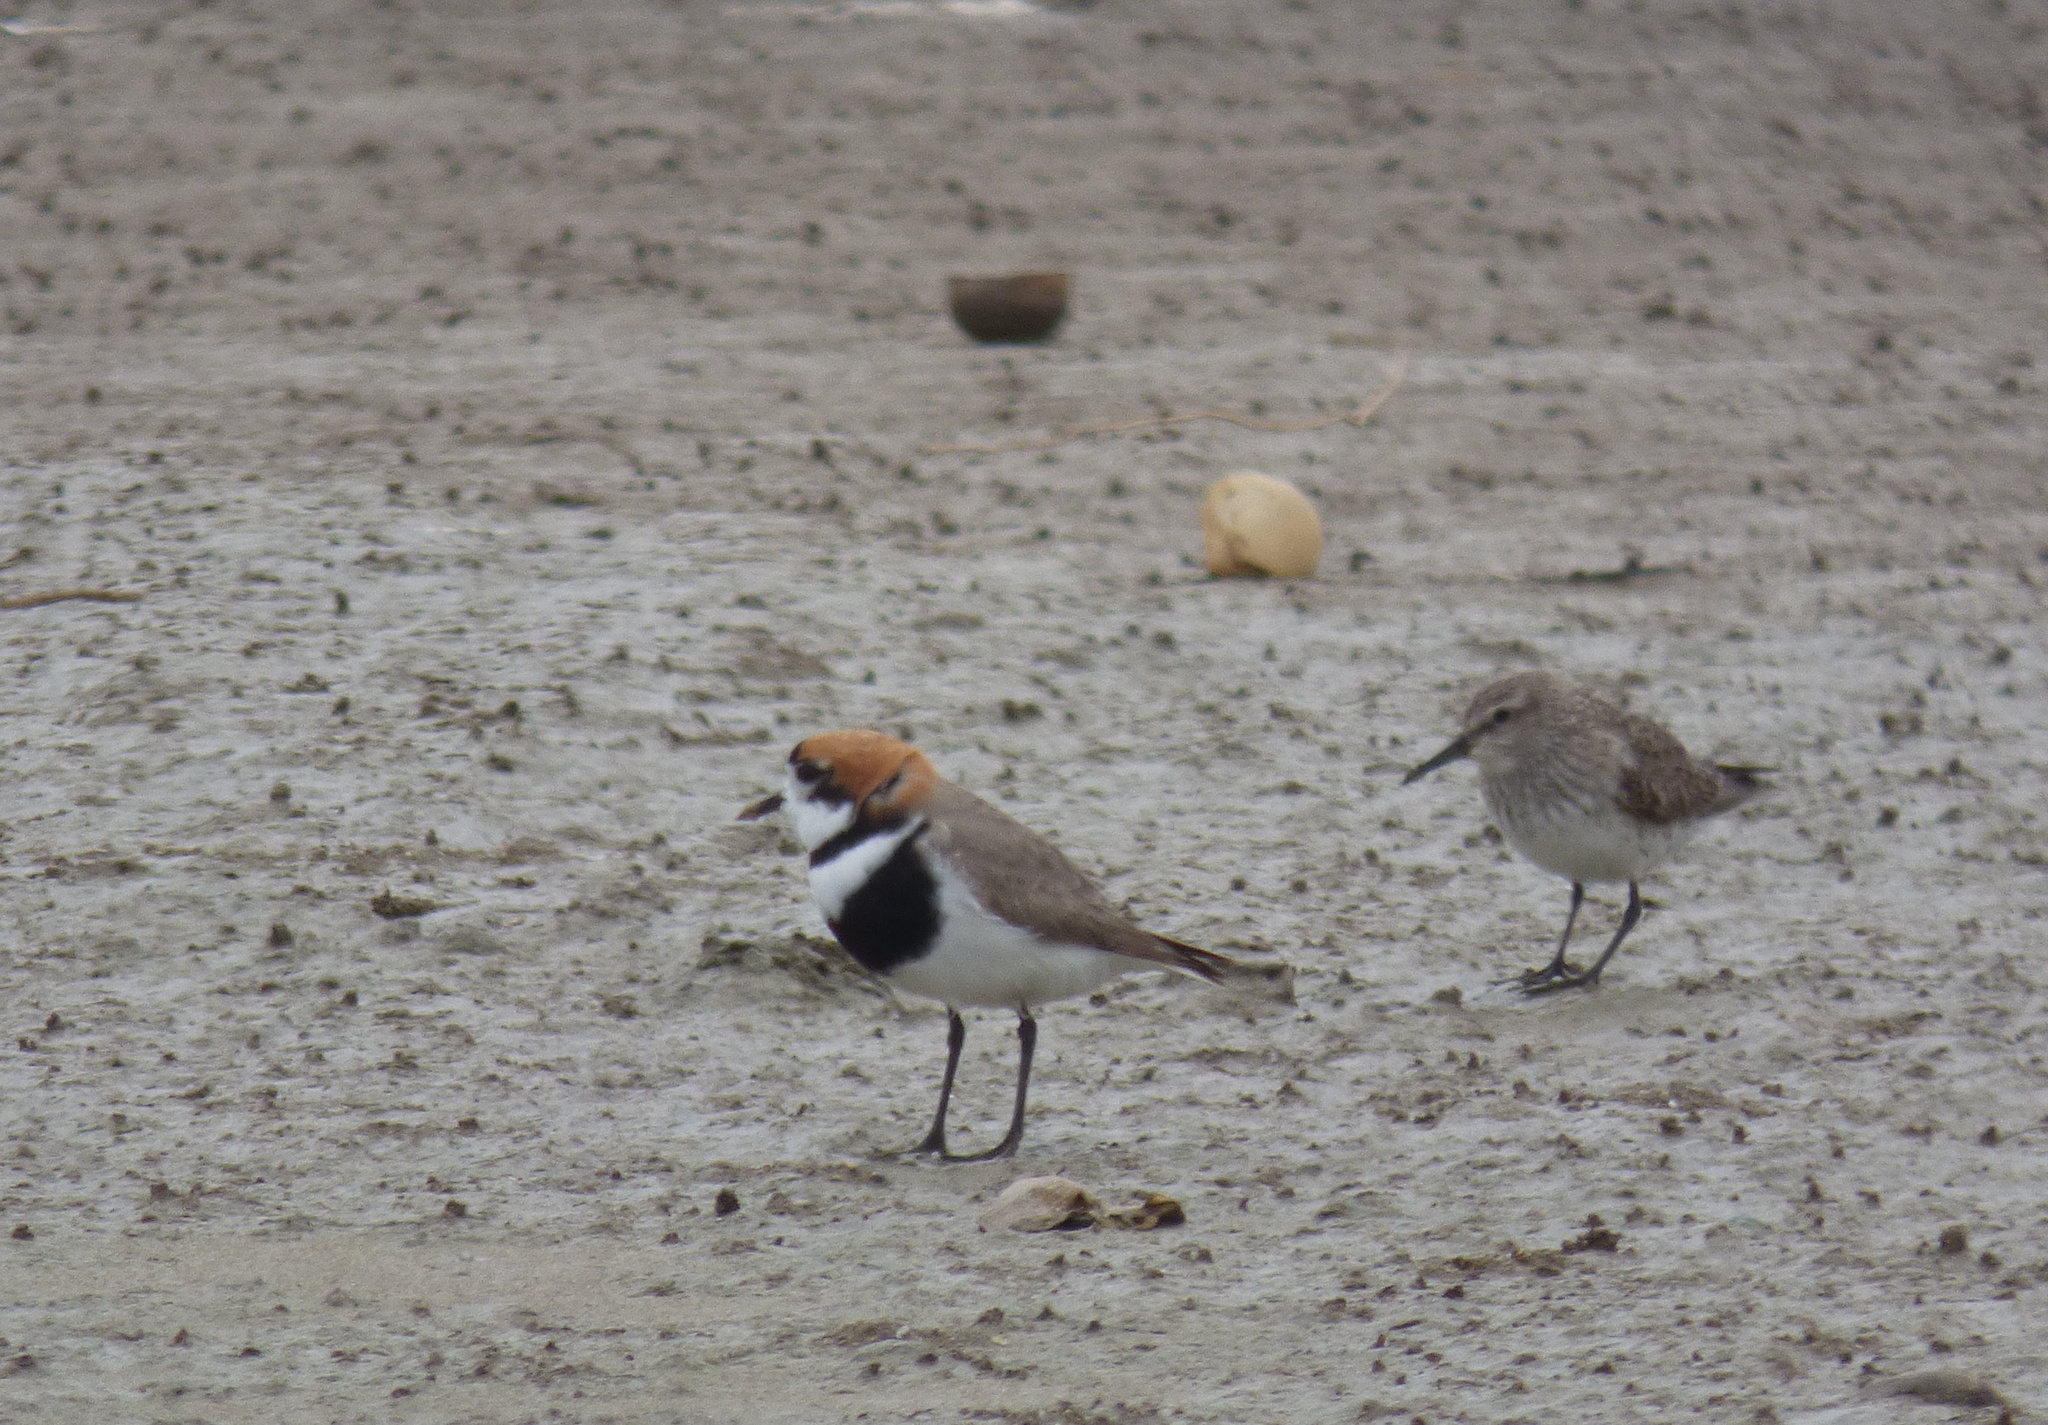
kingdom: Animalia
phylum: Chordata
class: Aves
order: Charadriiformes
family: Charadriidae
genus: Anarhynchus
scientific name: Anarhynchus
